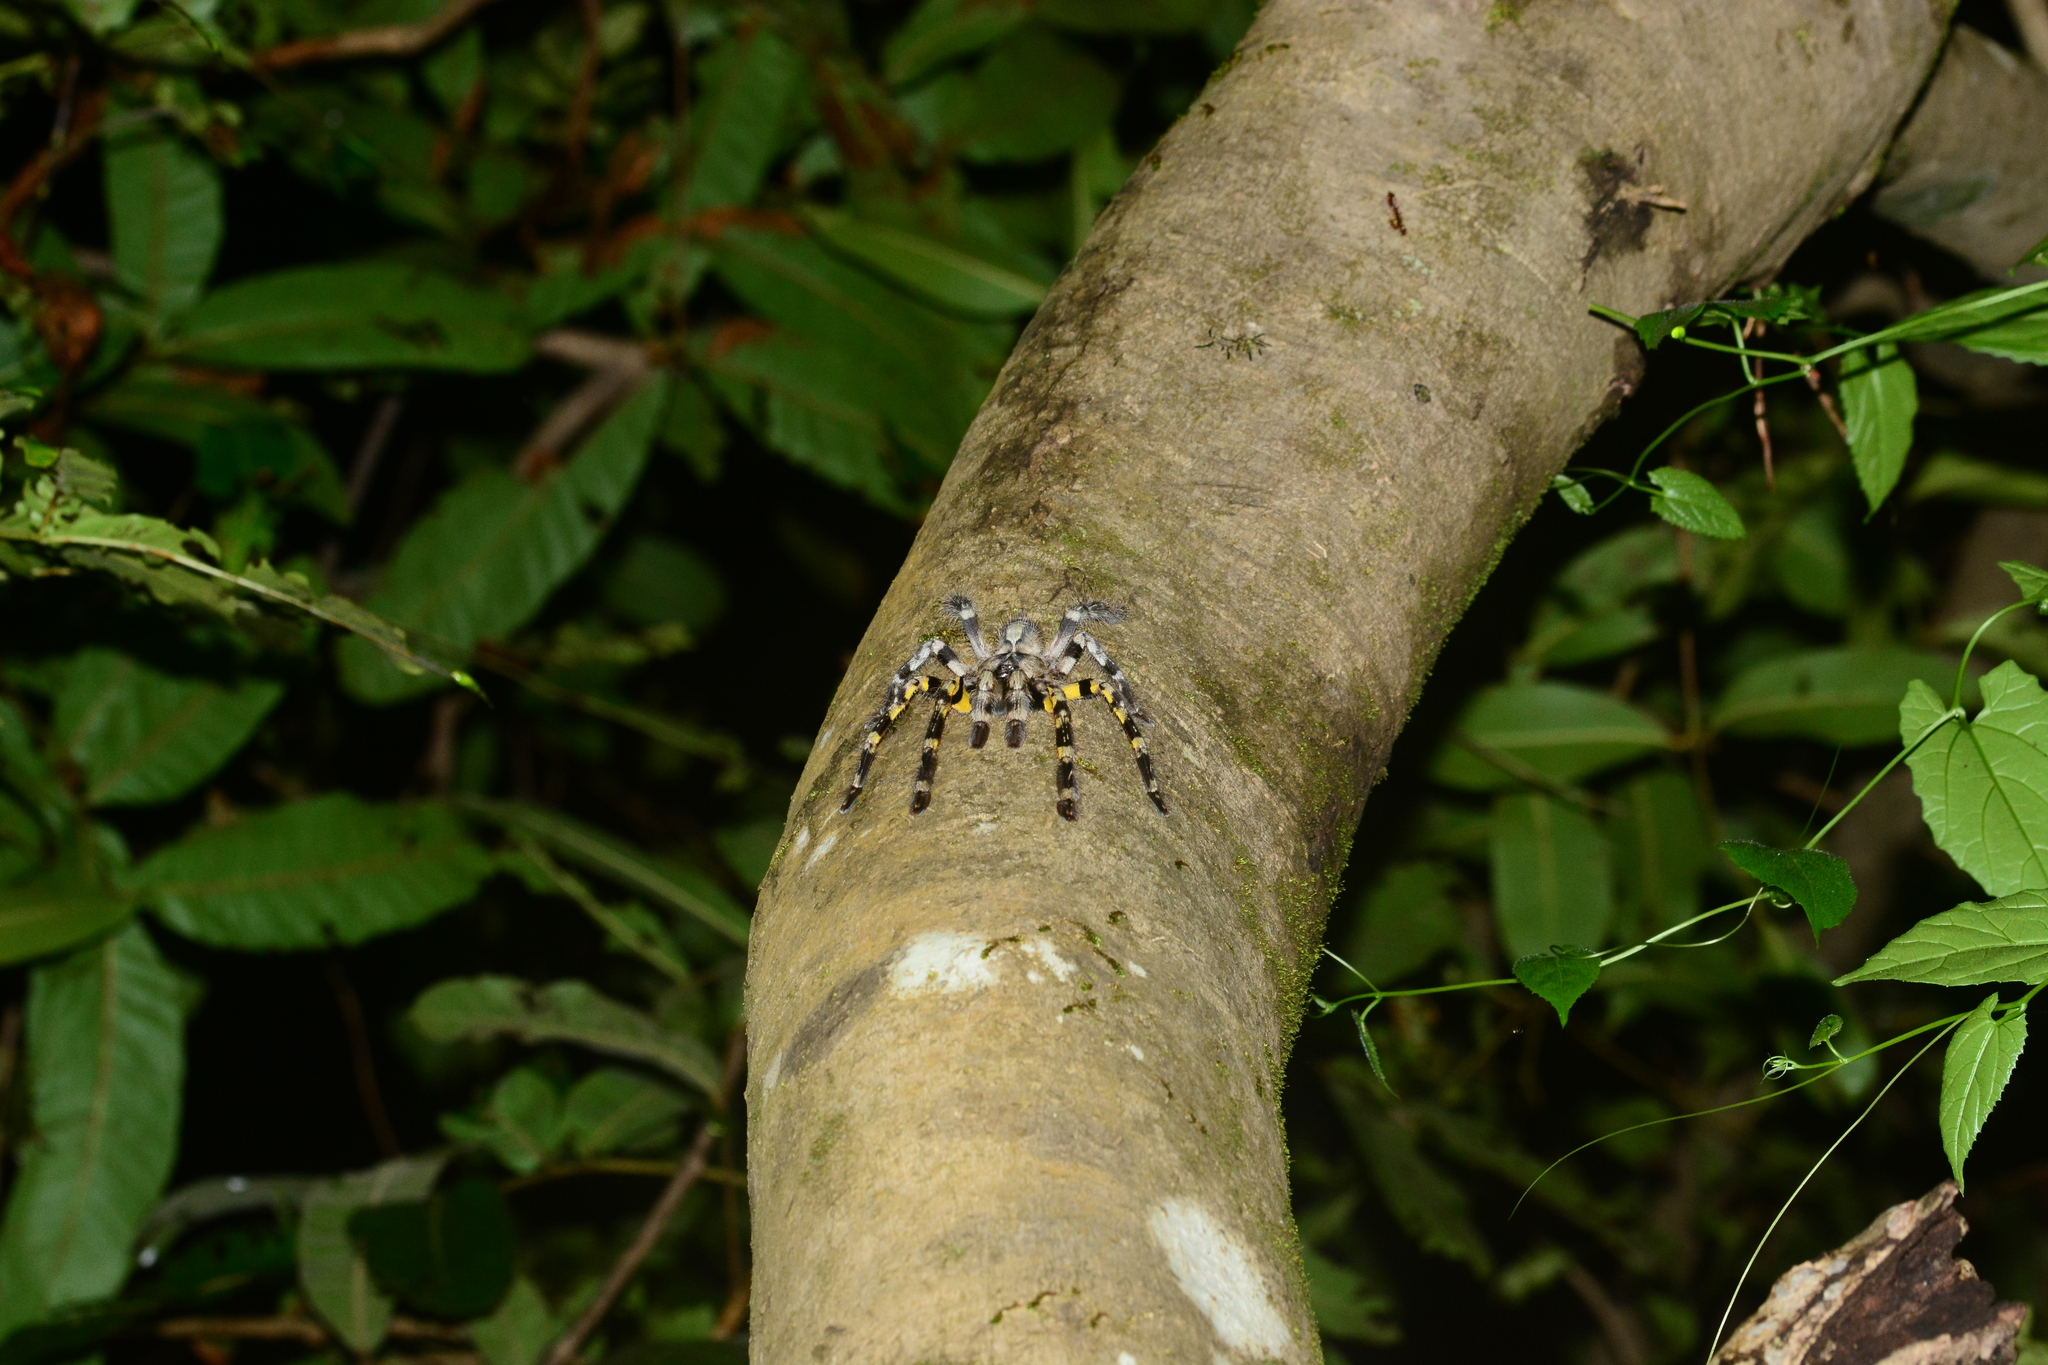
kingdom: Animalia
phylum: Arthropoda
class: Arachnida
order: Araneae
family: Theraphosidae
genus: Poecilotheria
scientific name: Poecilotheria regalis
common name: Indian ornamental
